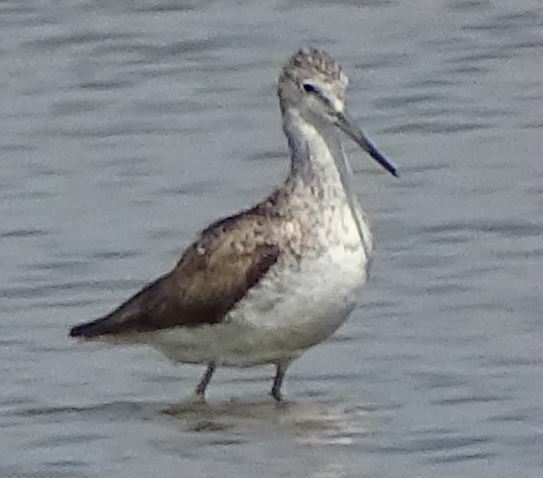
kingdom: Animalia
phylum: Chordata
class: Aves
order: Charadriiformes
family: Scolopacidae
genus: Tringa
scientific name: Tringa nebularia
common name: Common greenshank
